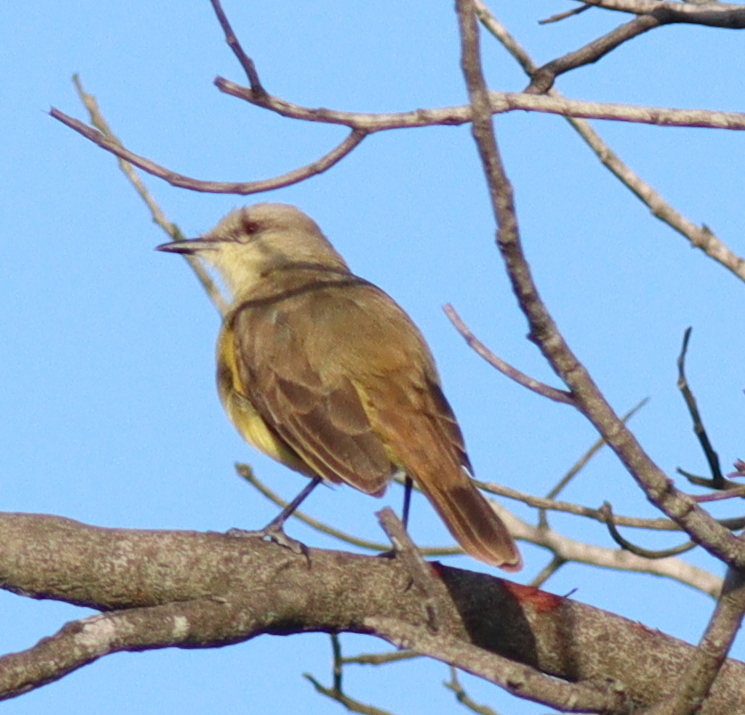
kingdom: Animalia
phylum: Chordata
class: Aves
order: Passeriformes
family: Tyrannidae
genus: Machetornis
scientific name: Machetornis rixosa
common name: Cattle tyrant
